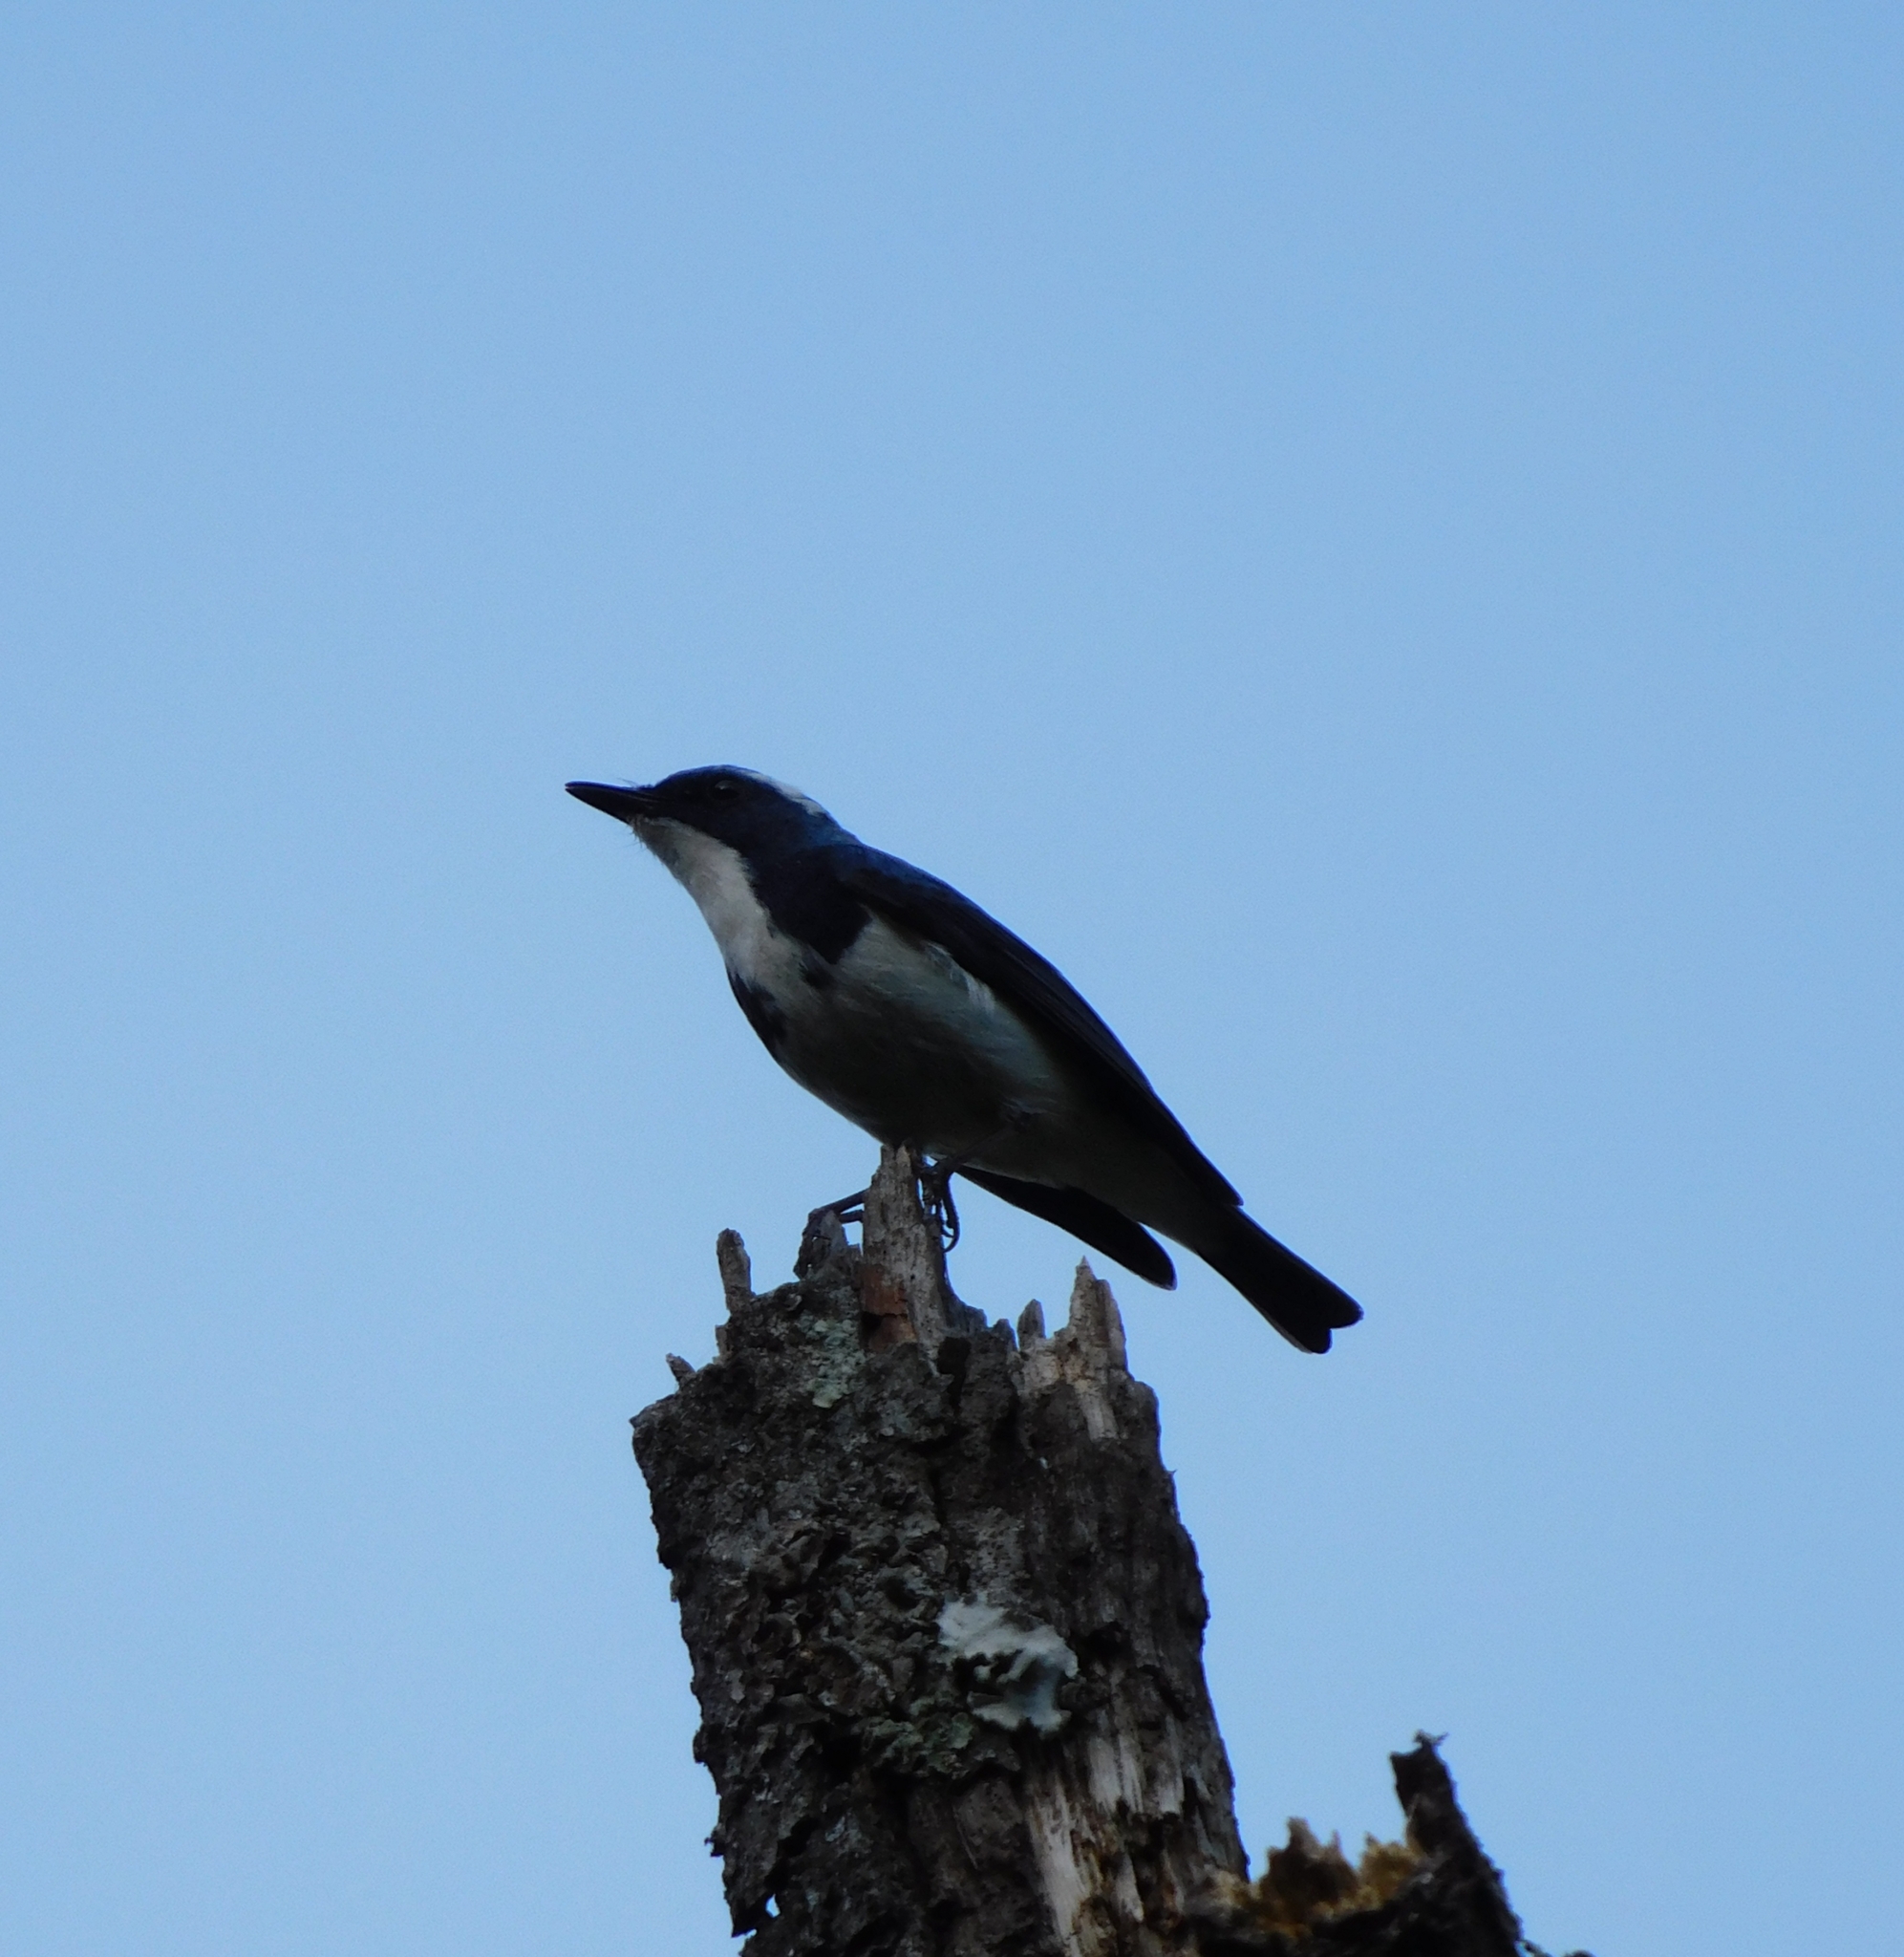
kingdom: Animalia
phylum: Chordata
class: Aves
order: Passeriformes
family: Muscicapidae
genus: Ficedula
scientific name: Ficedula superciliaris
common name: Ultramarine flycatcher
